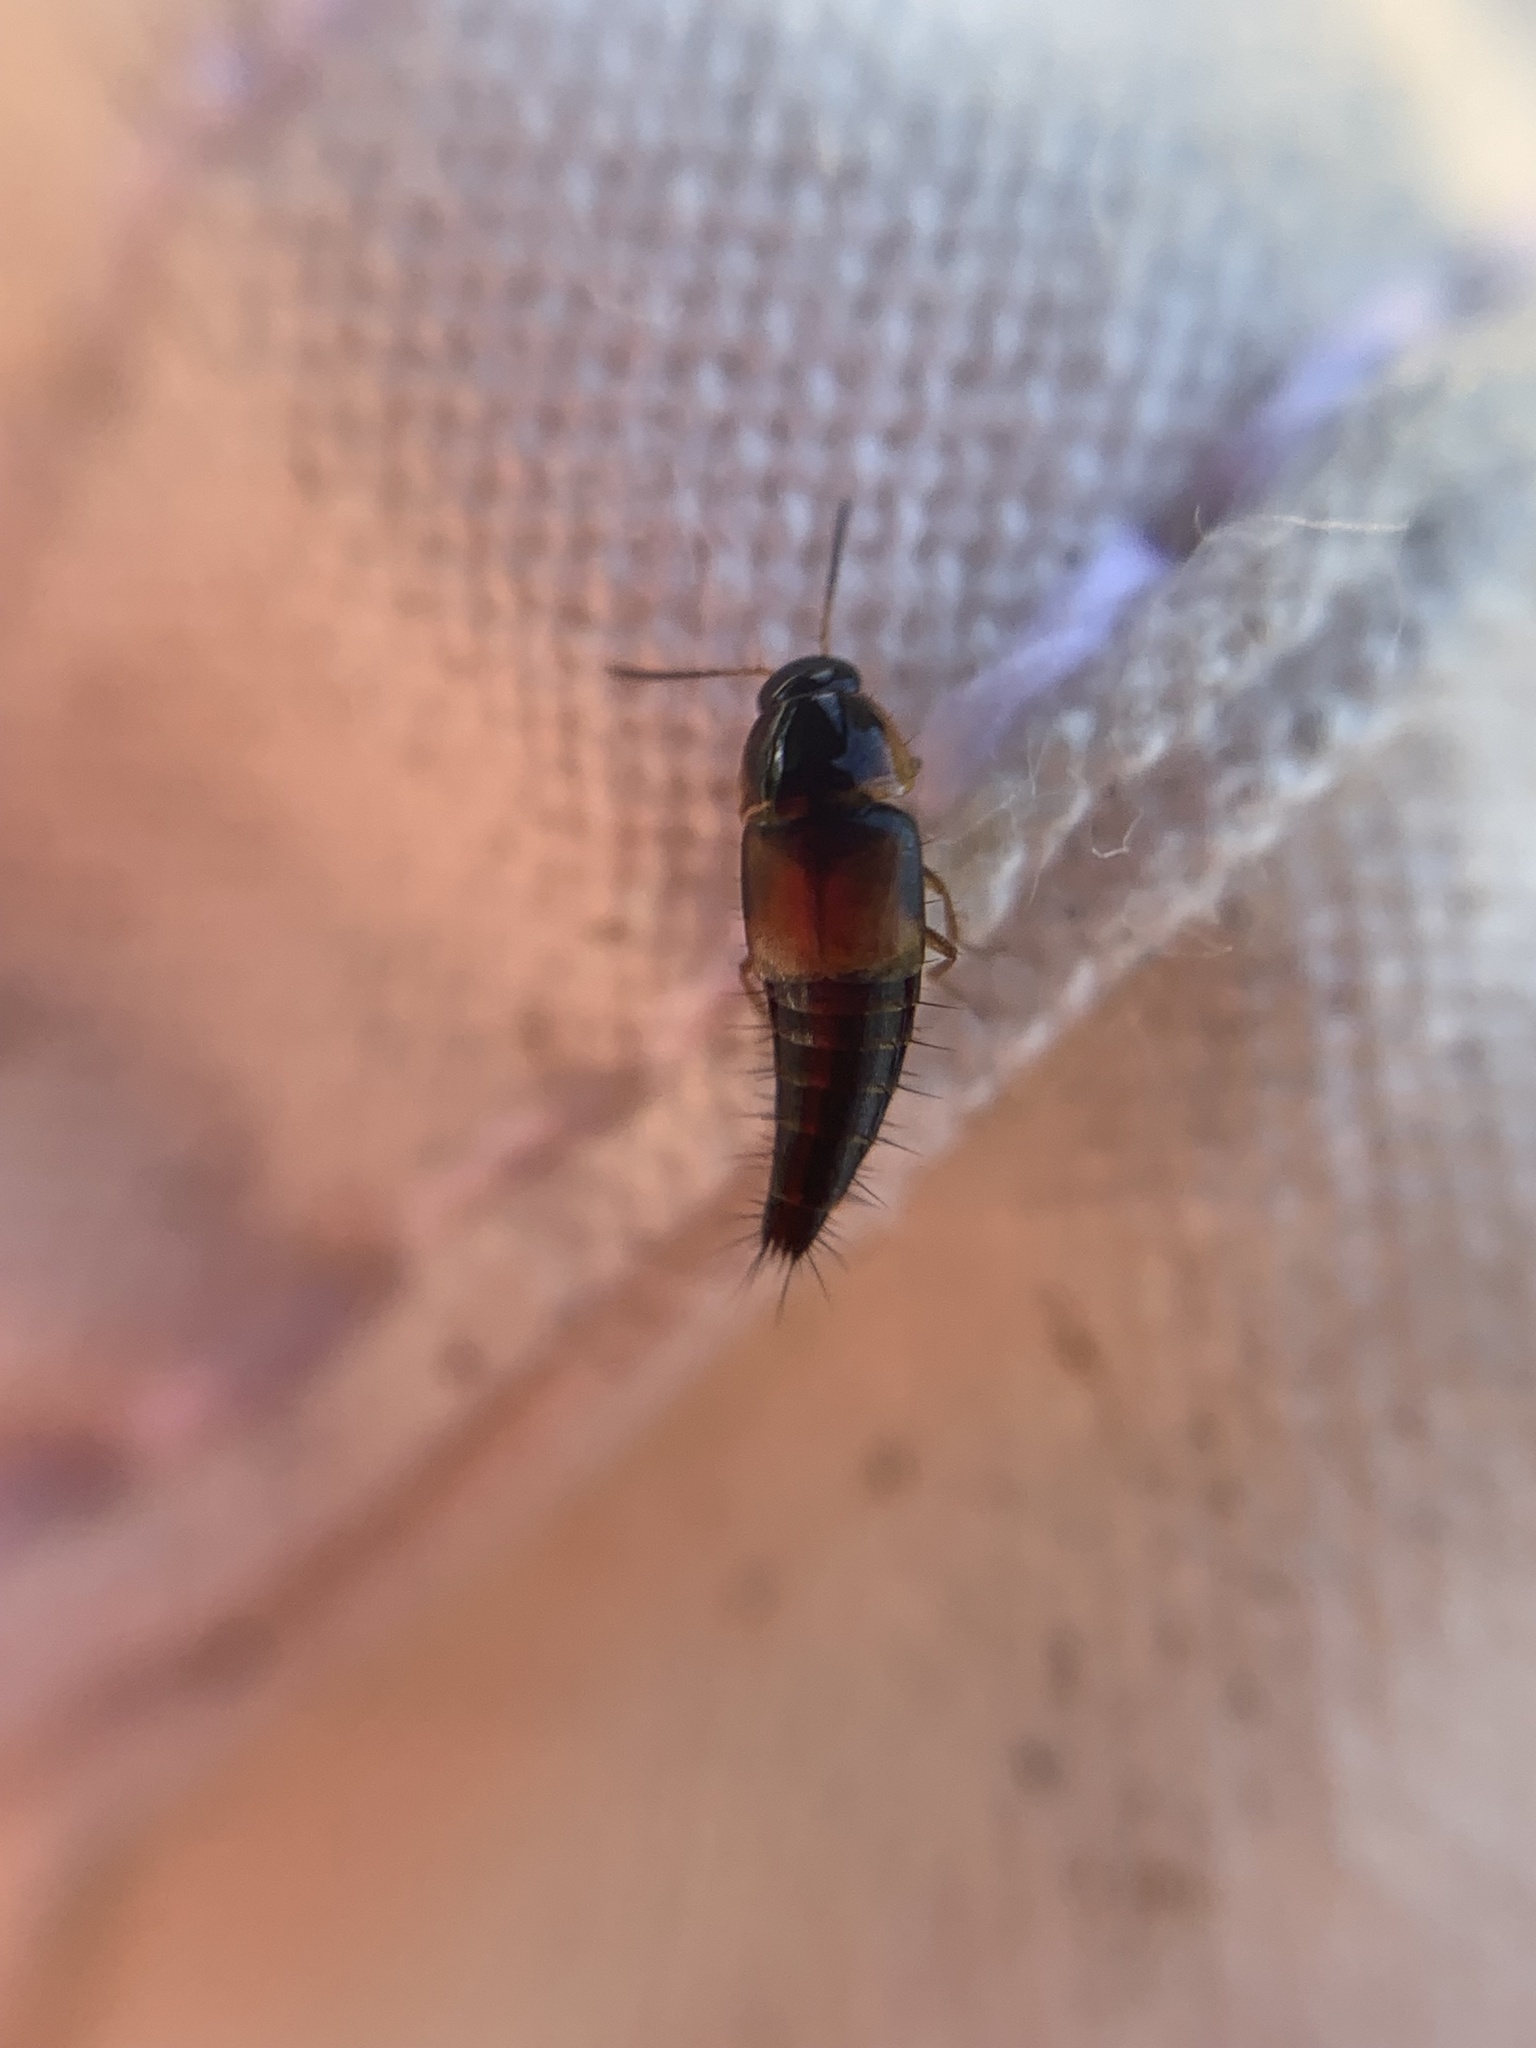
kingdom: Animalia
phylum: Arthropoda
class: Insecta
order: Coleoptera
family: Staphylinidae
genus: Tachyporus
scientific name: Tachyporus hypnorum
